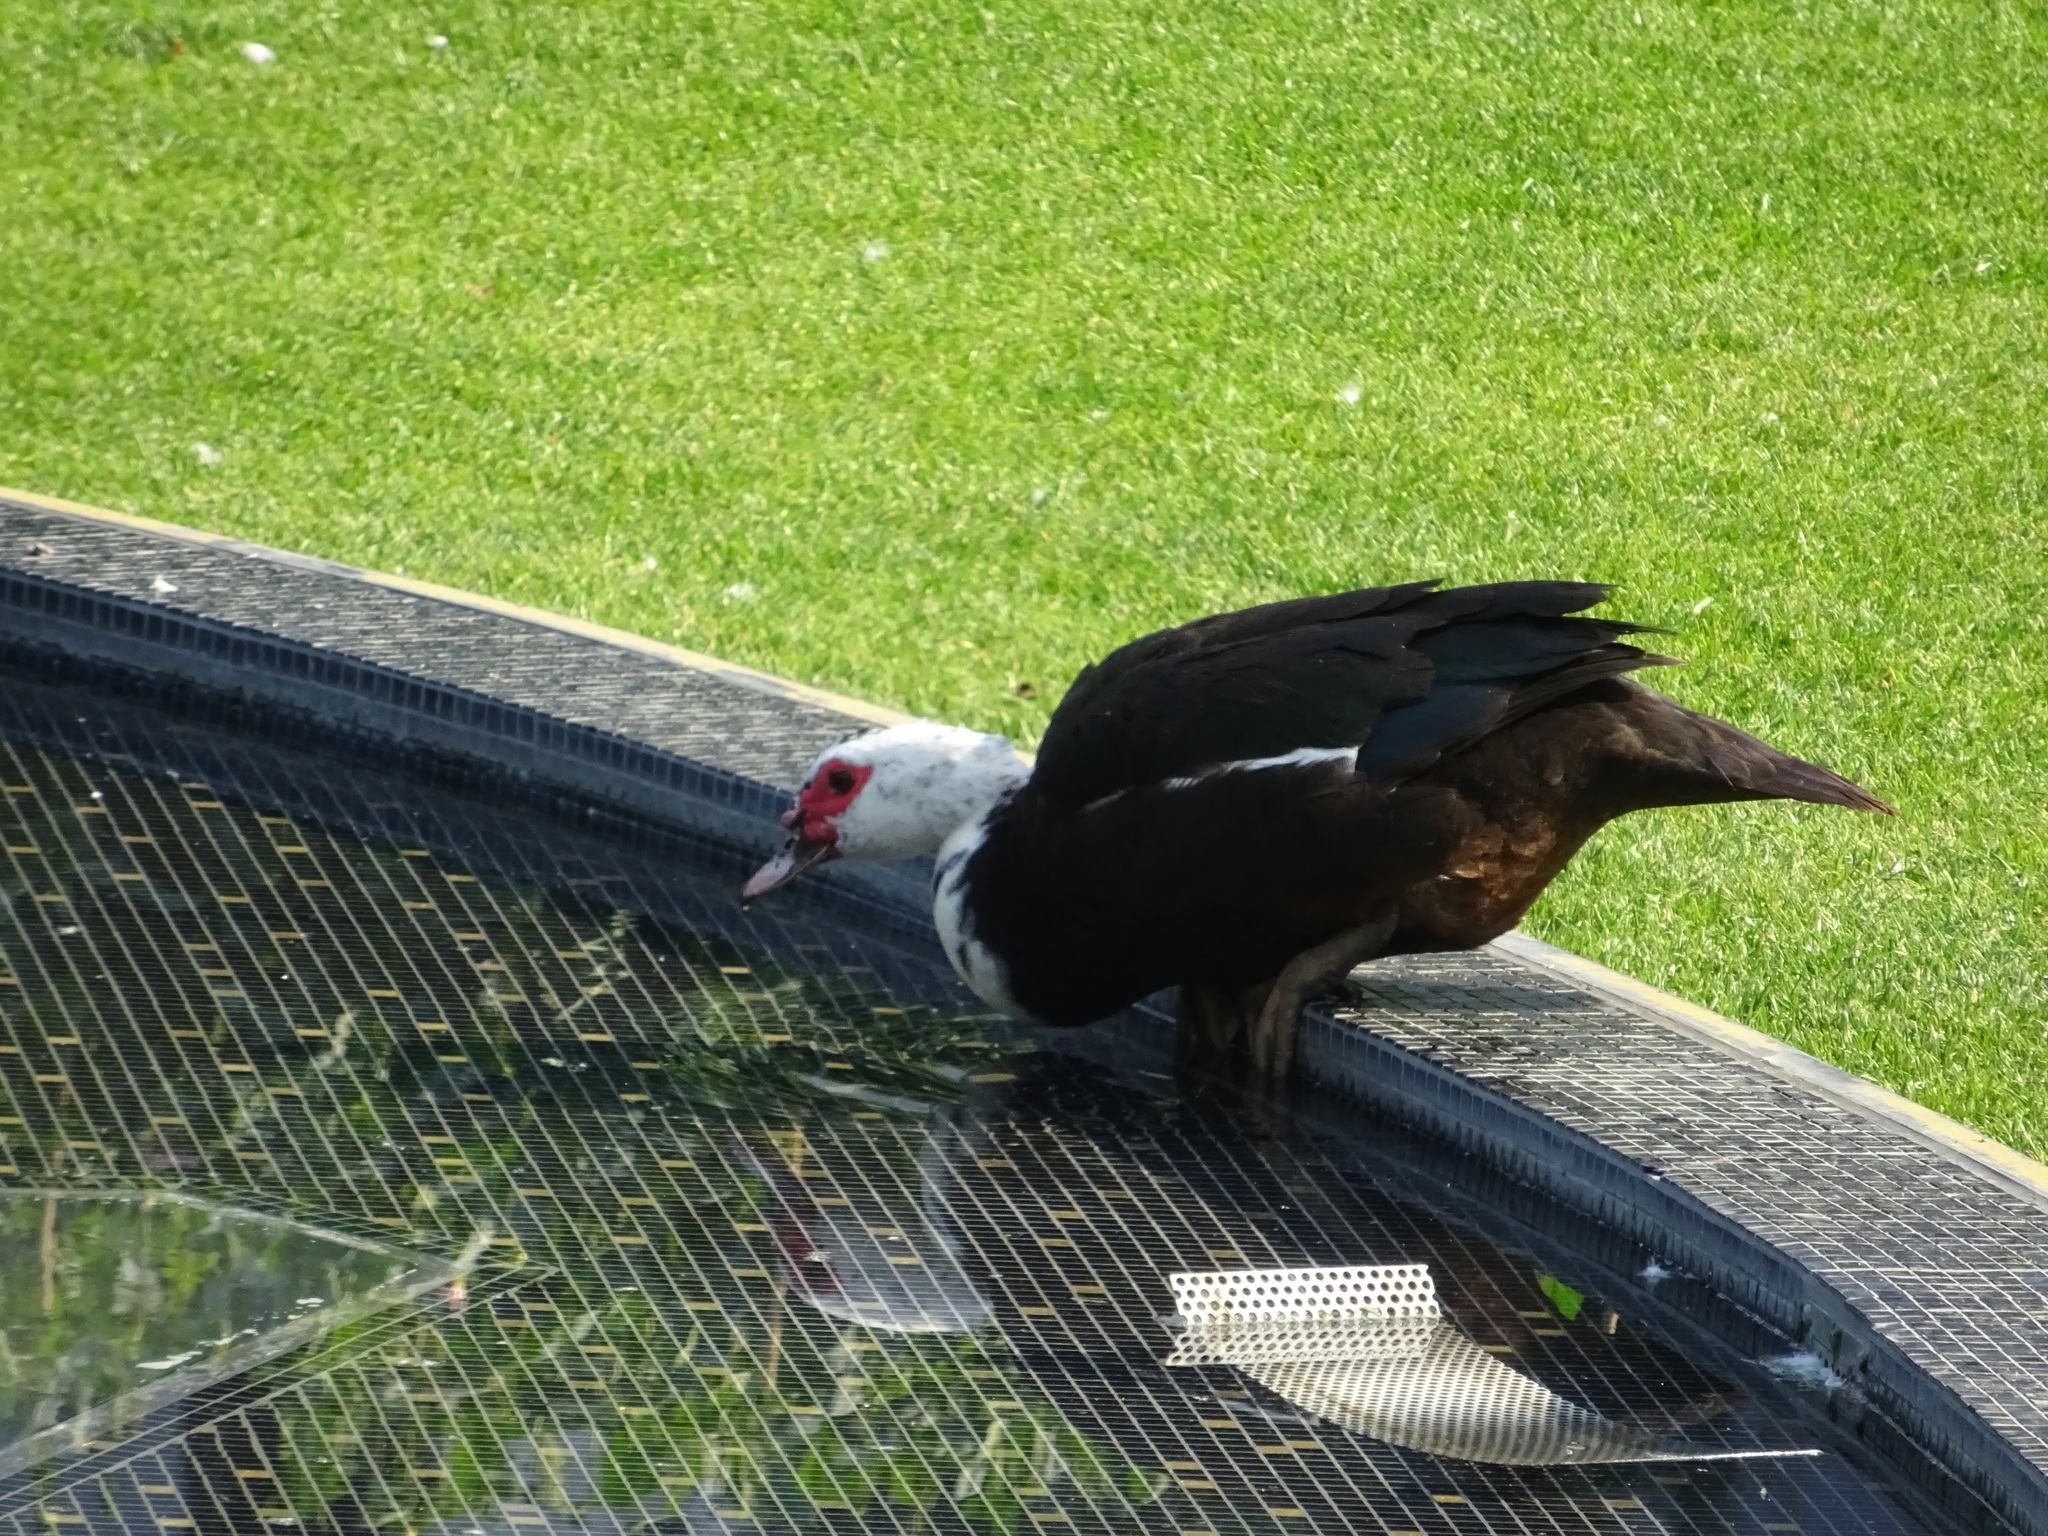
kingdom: Animalia
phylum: Chordata
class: Aves
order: Anseriformes
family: Anatidae
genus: Cairina
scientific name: Cairina moschata
